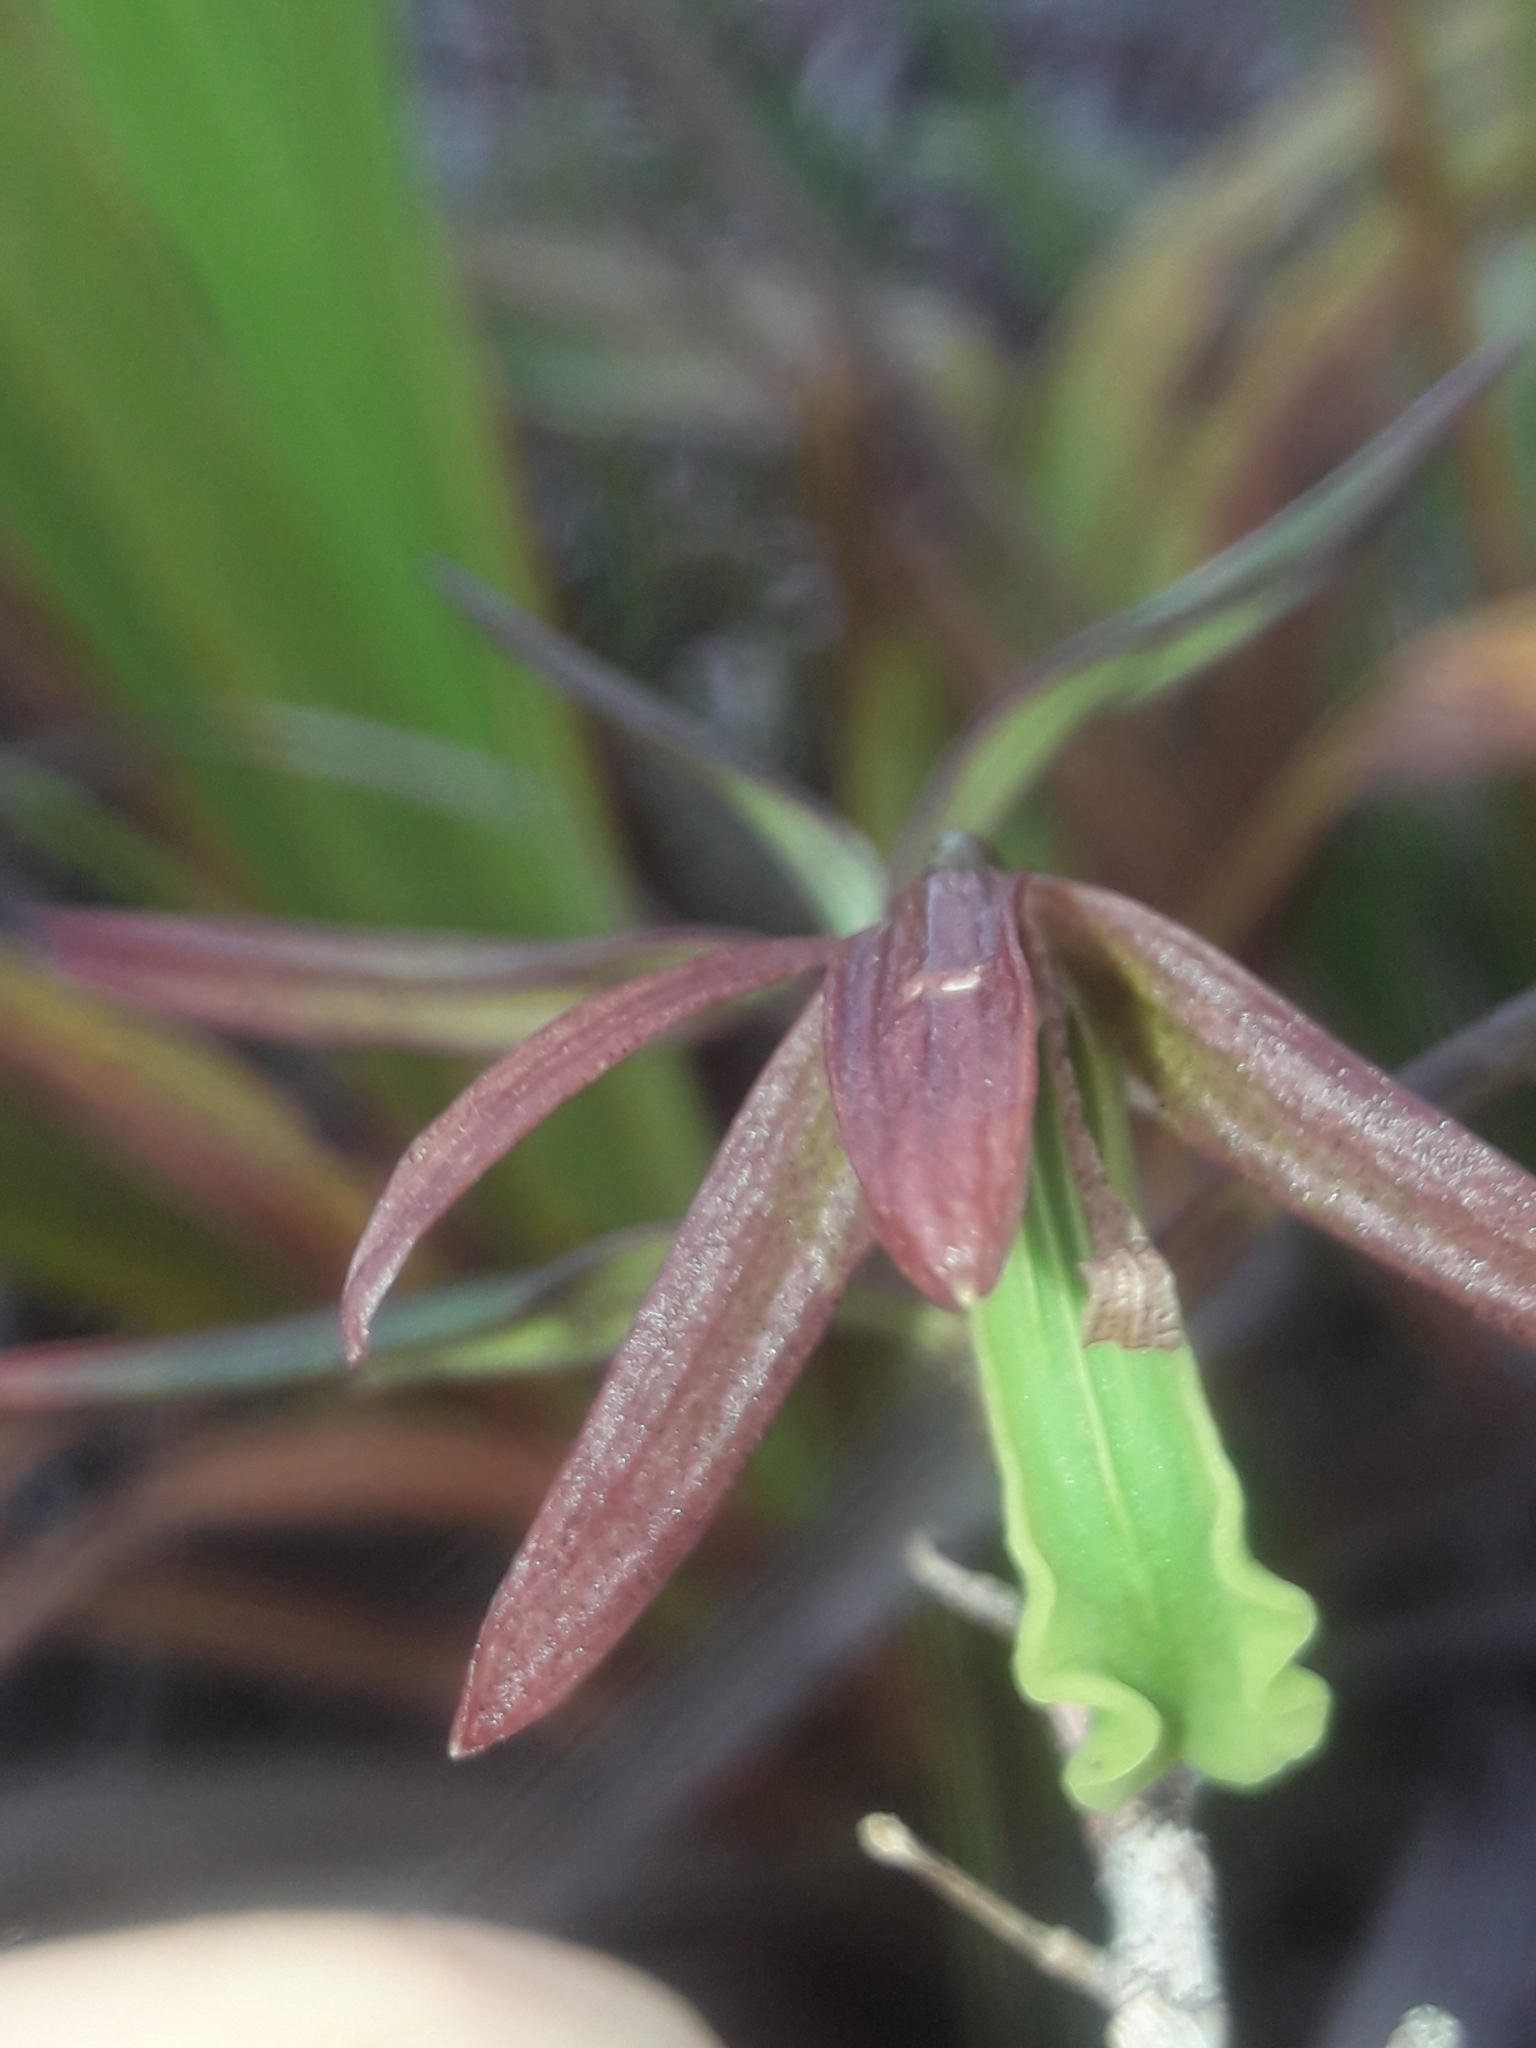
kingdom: Plantae
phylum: Tracheophyta
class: Liliopsida
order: Asparagales
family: Orchidaceae
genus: Dendrobium
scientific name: Dendrobium verruciferum
